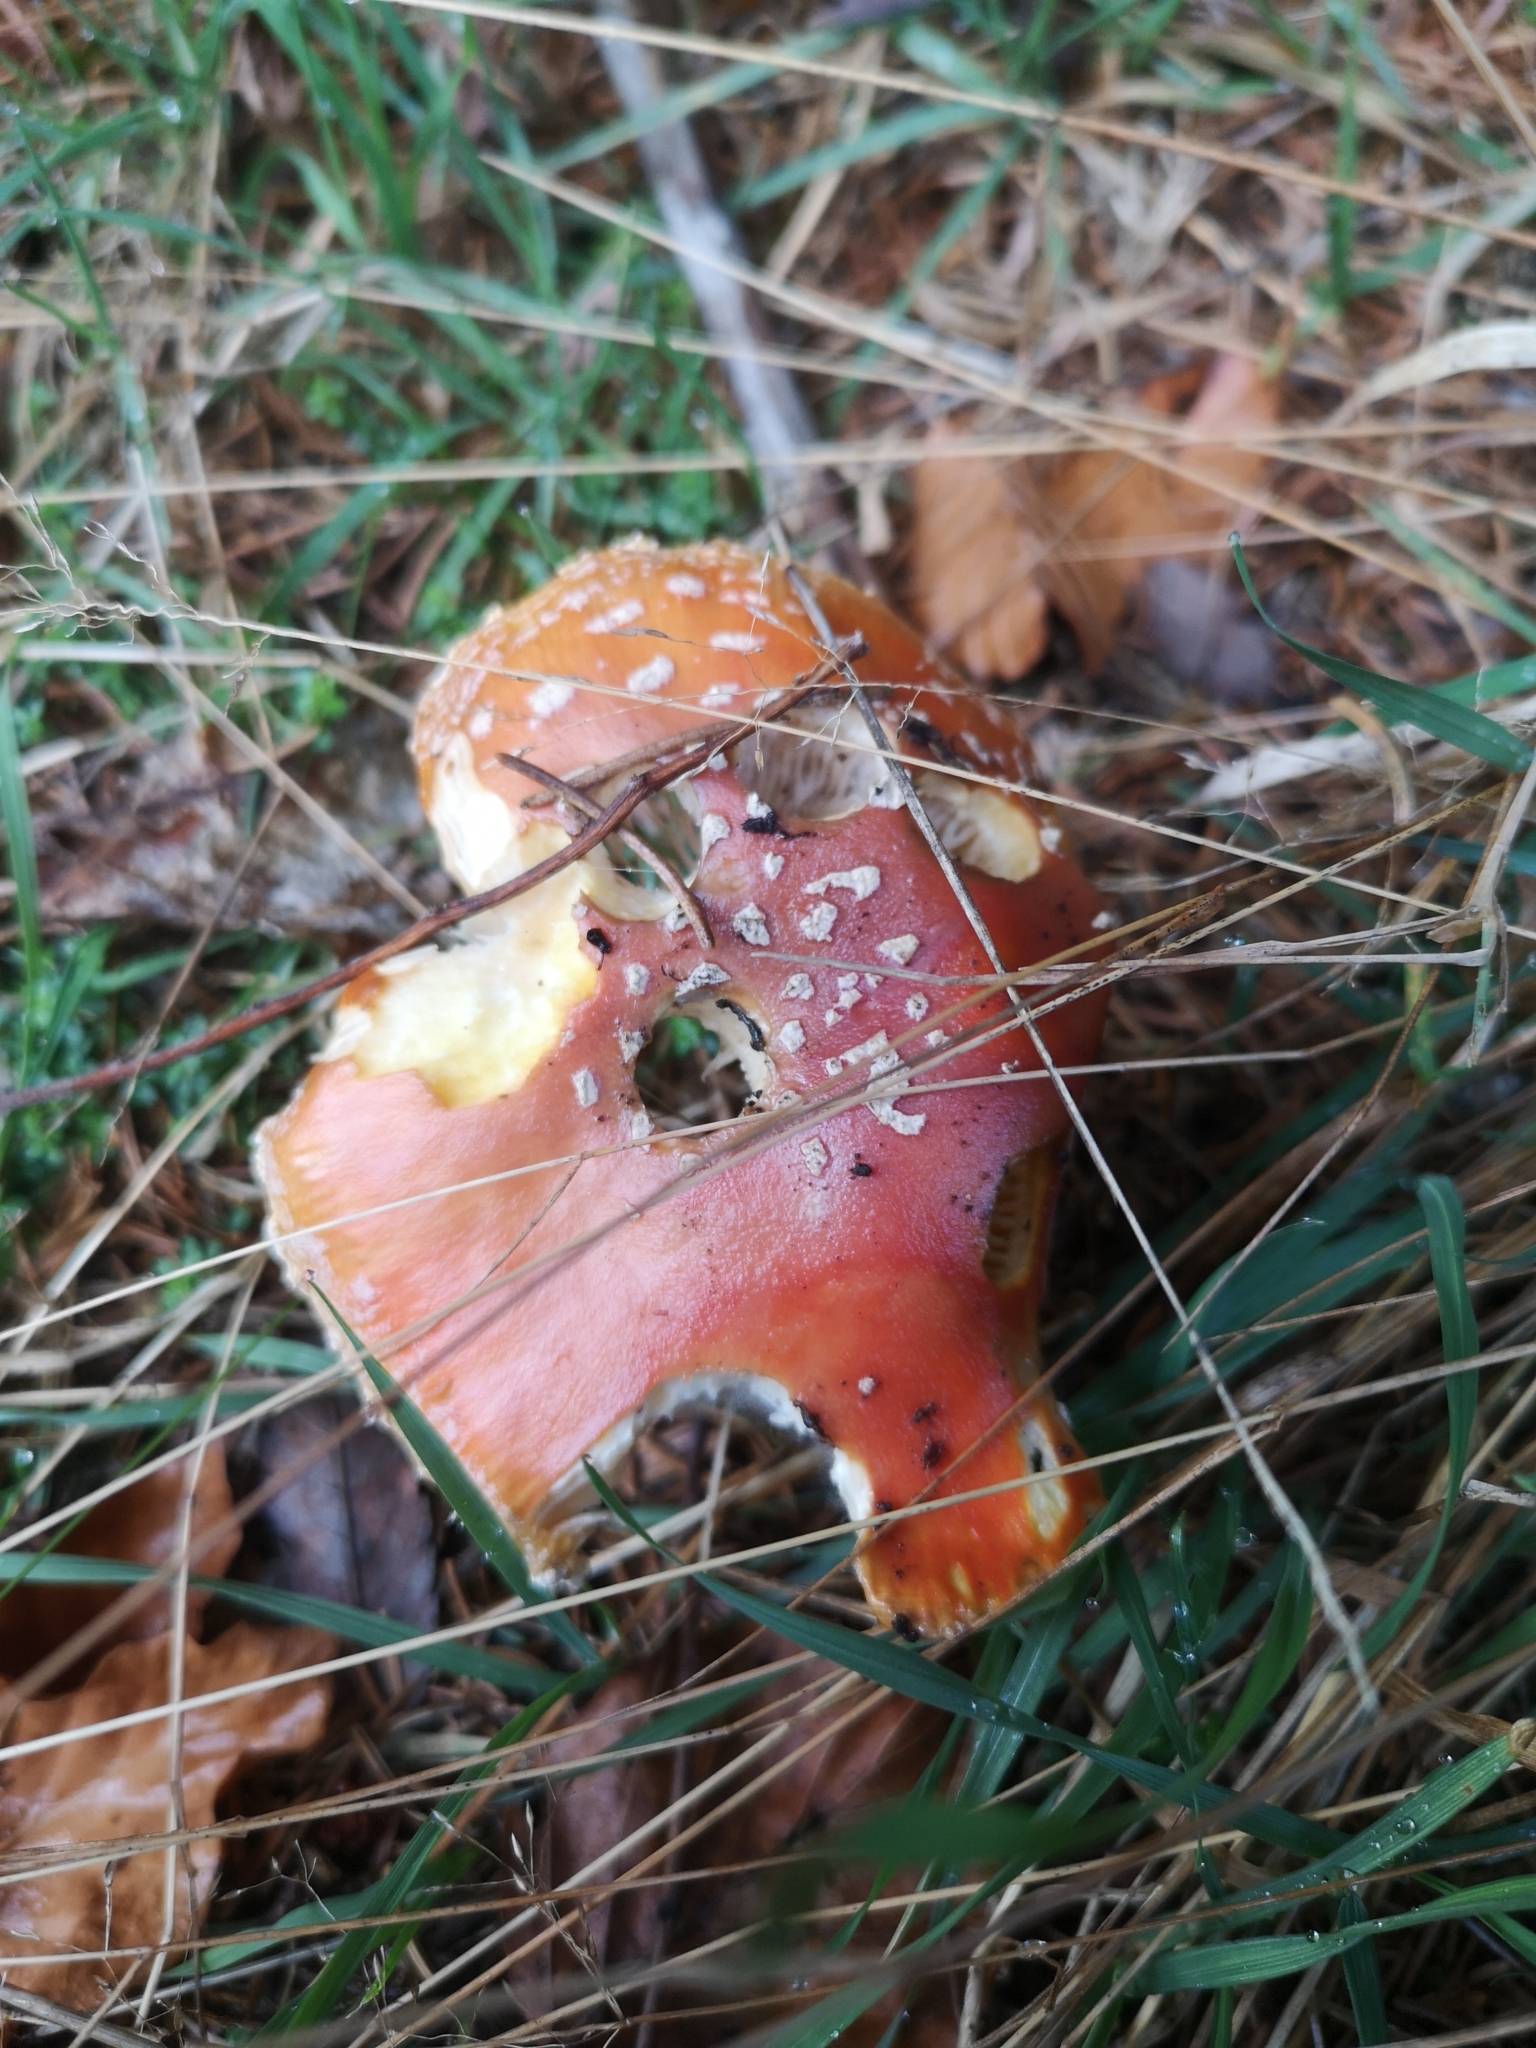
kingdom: Fungi
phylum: Basidiomycota
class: Agaricomycetes
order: Agaricales
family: Amanitaceae
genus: Amanita
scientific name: Amanita muscaria
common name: Fly agaric
